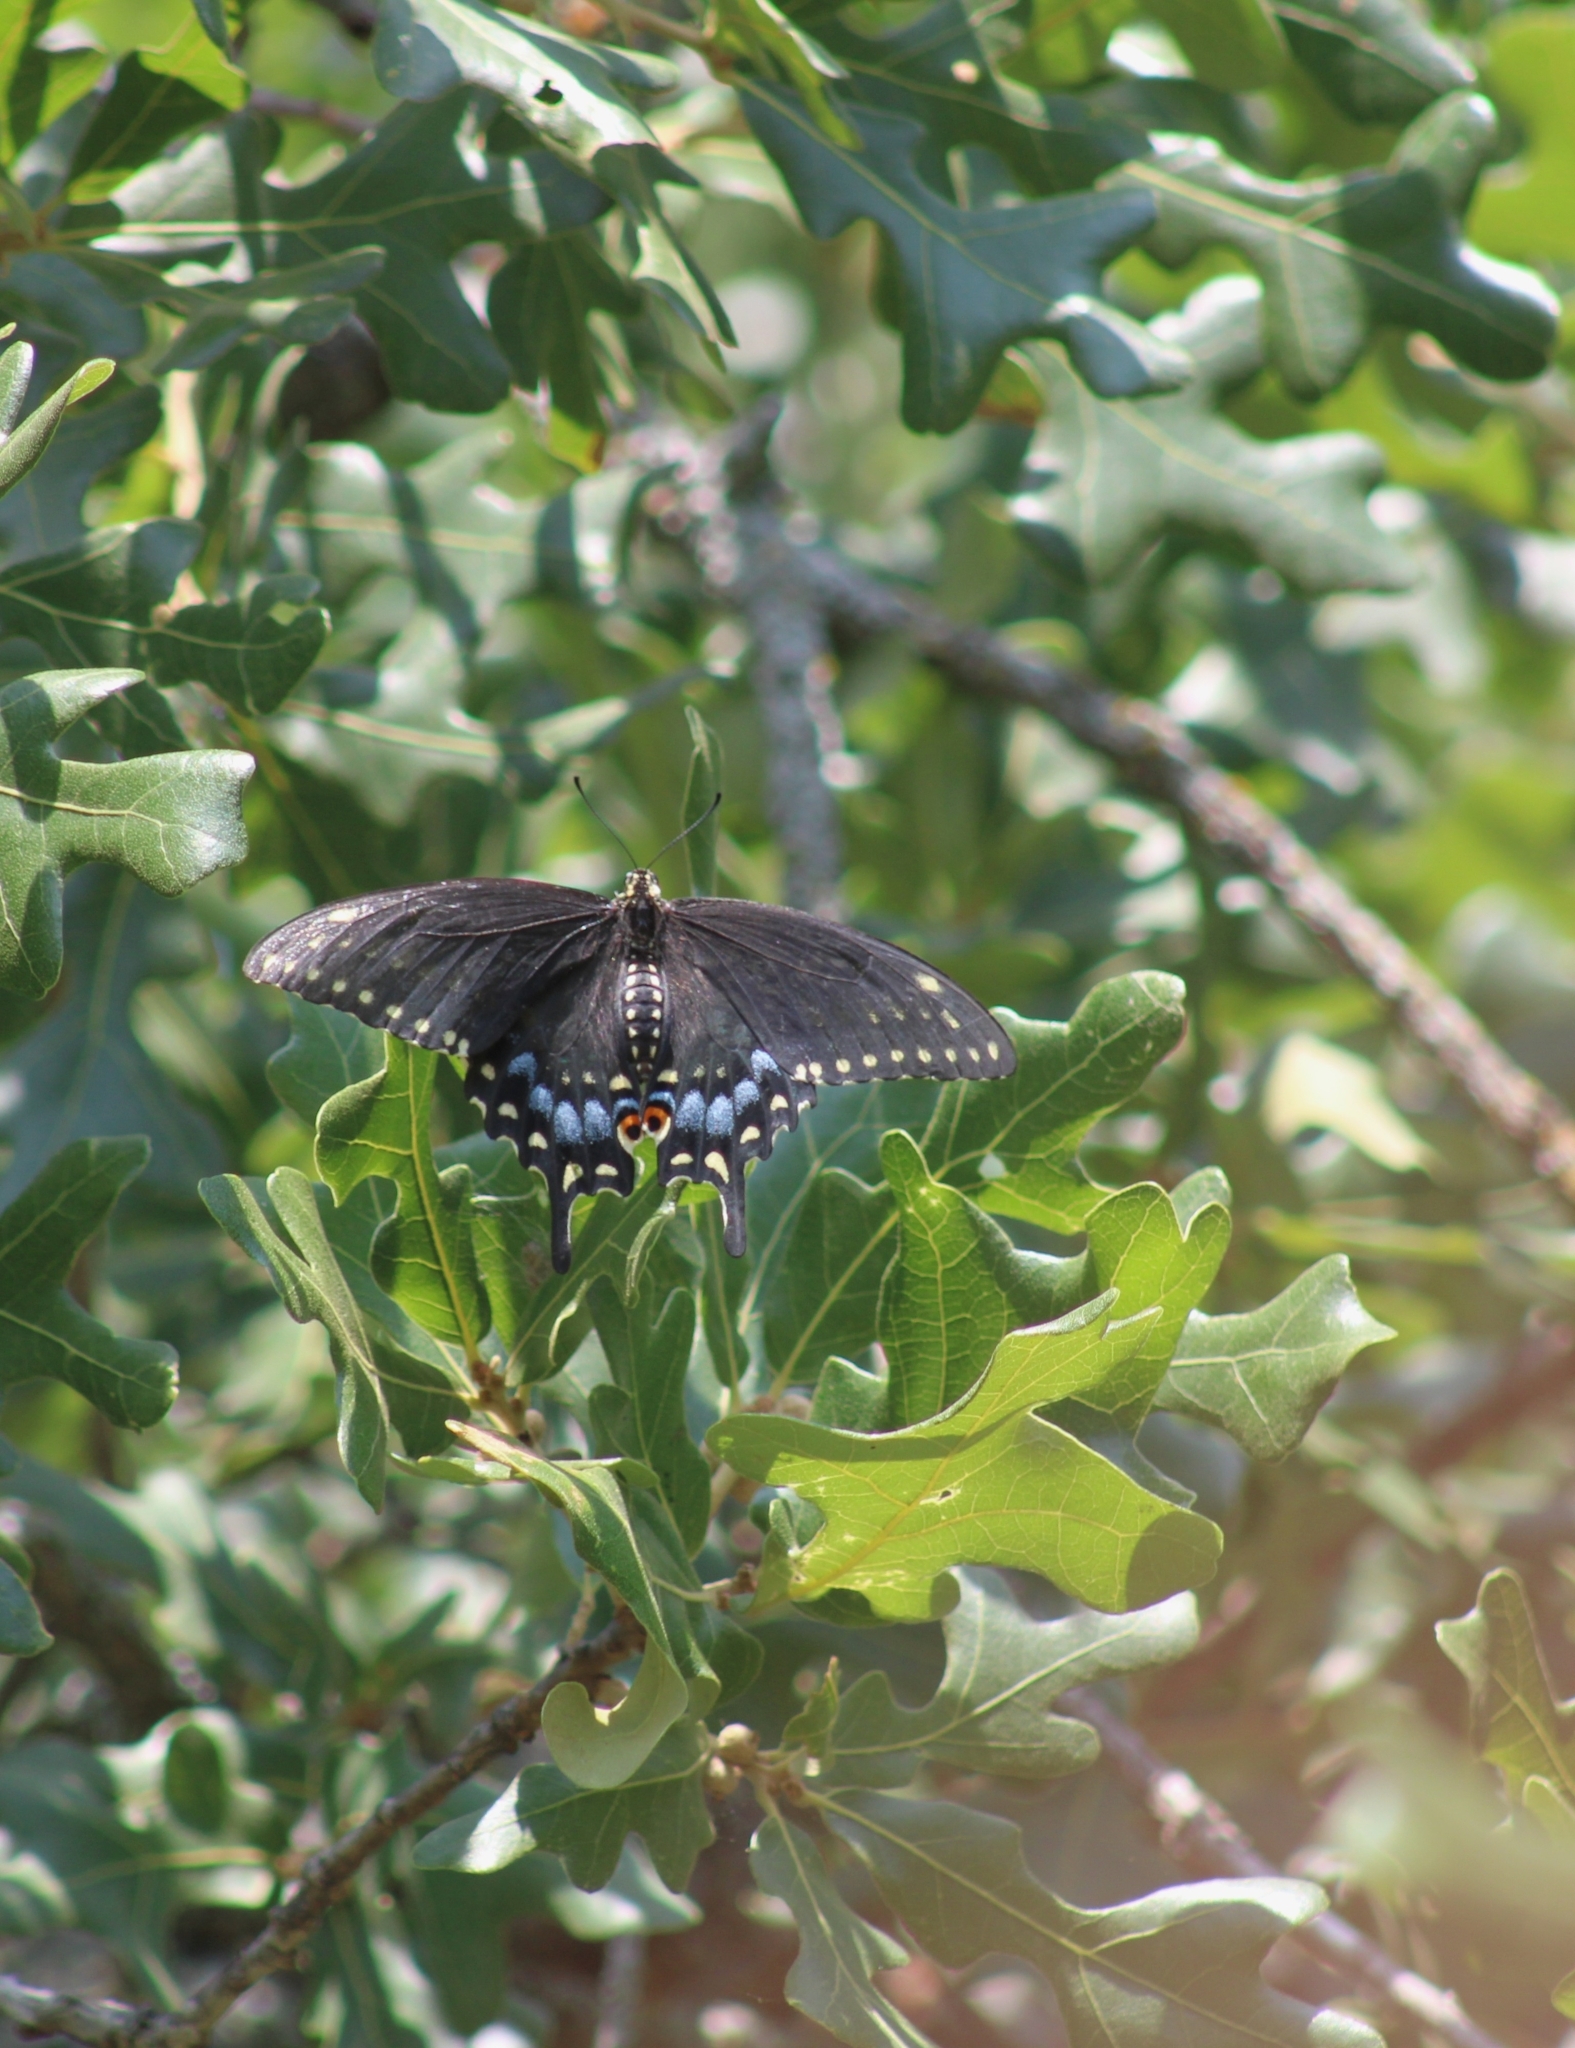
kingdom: Animalia
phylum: Arthropoda
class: Insecta
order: Lepidoptera
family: Papilionidae
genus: Papilio
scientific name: Papilio polyxenes
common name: Black swallowtail
